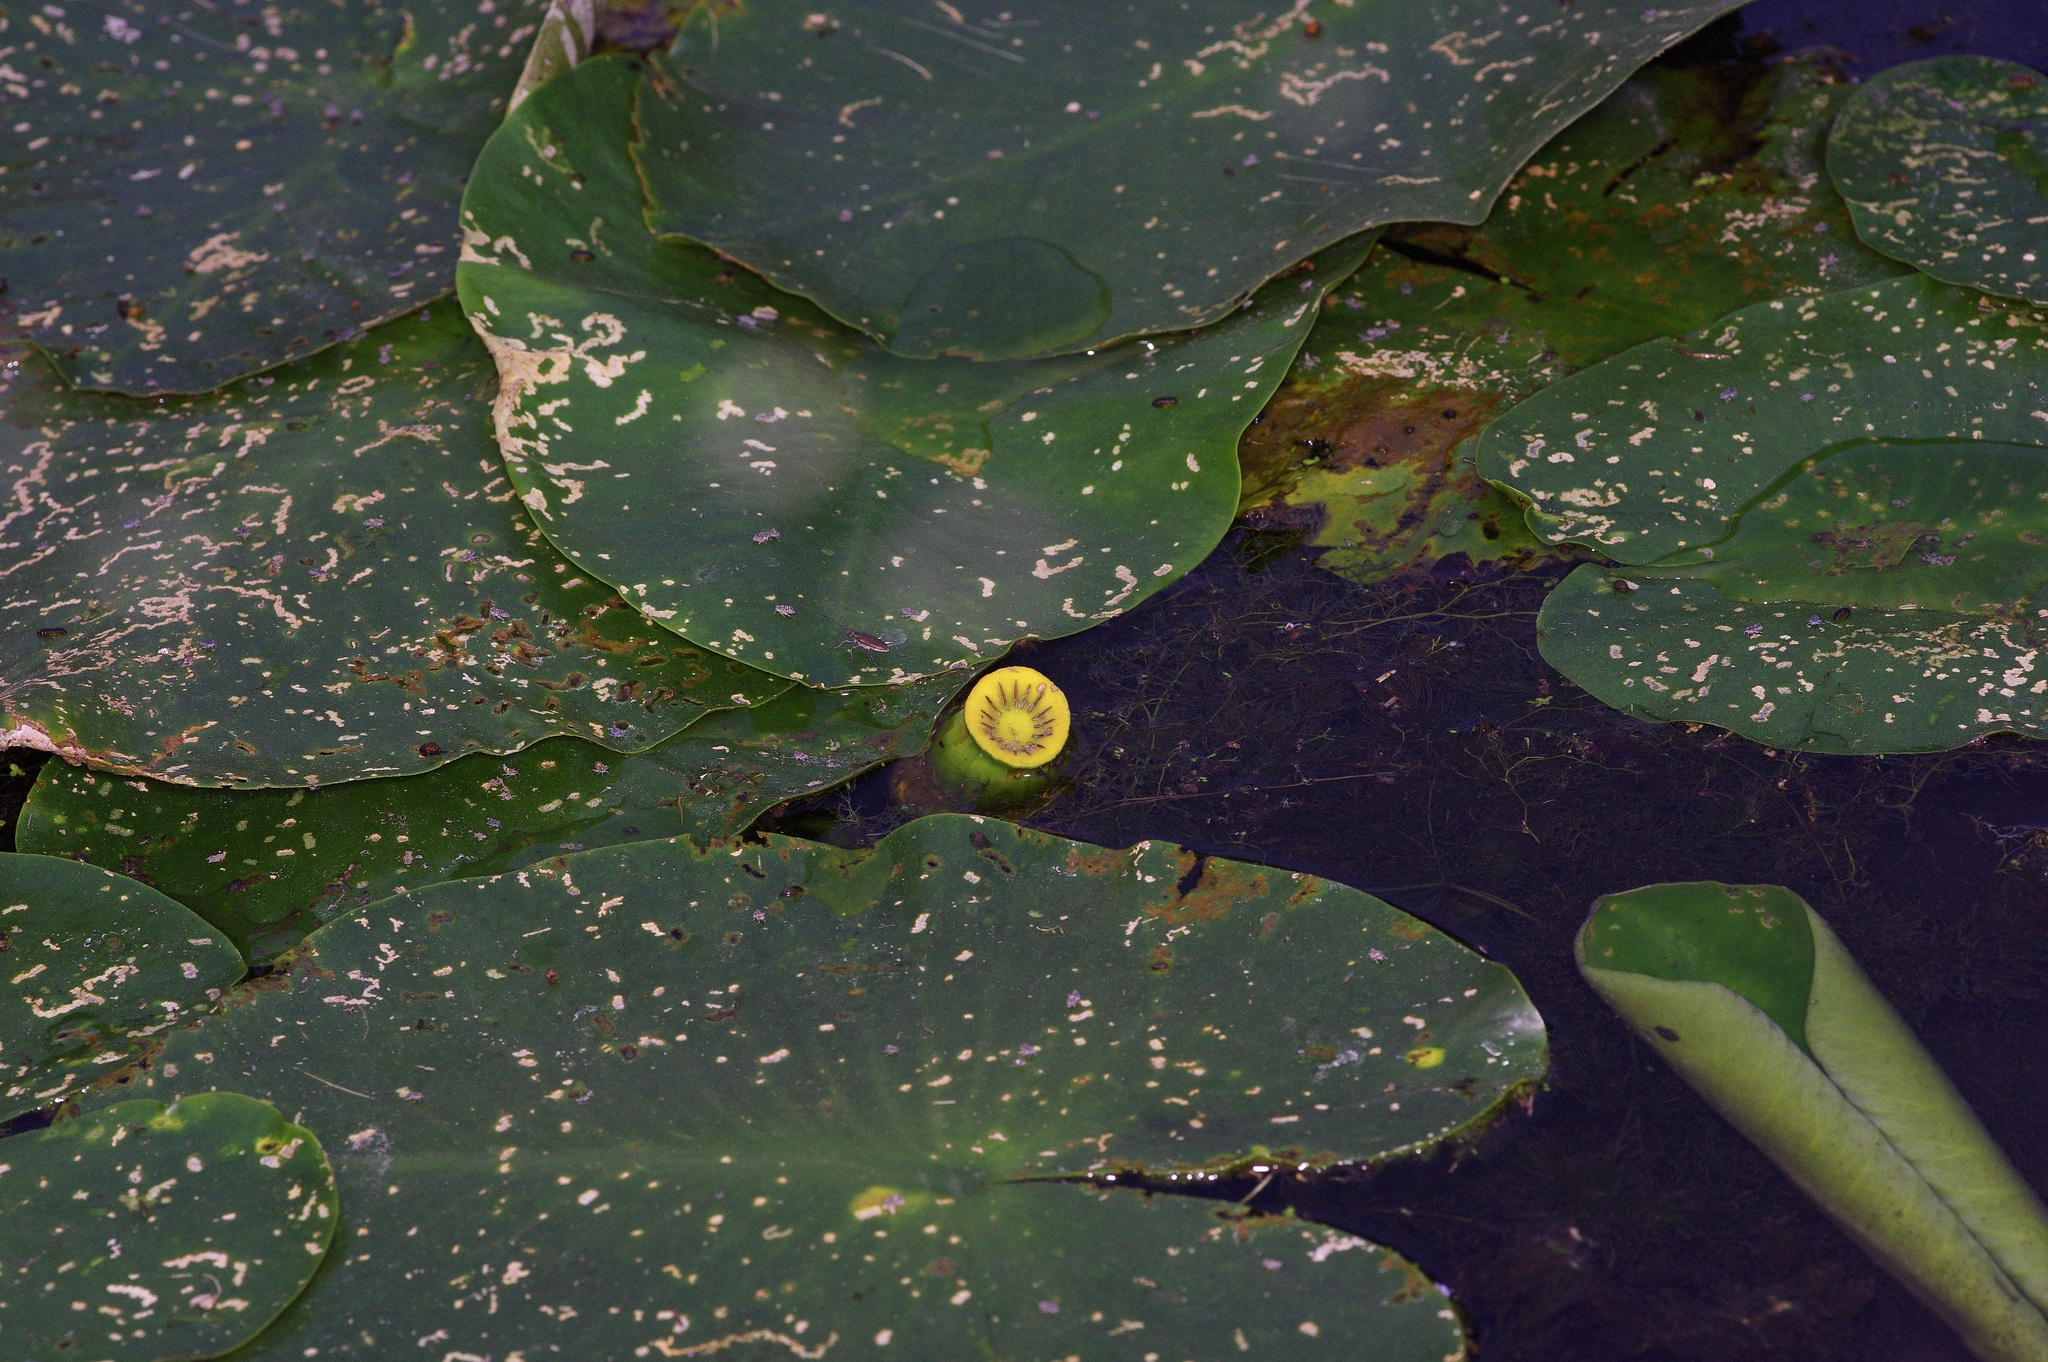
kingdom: Plantae
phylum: Tracheophyta
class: Magnoliopsida
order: Nymphaeales
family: Nymphaeaceae
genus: Nuphar
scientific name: Nuphar lutea
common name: Yellow water-lily
